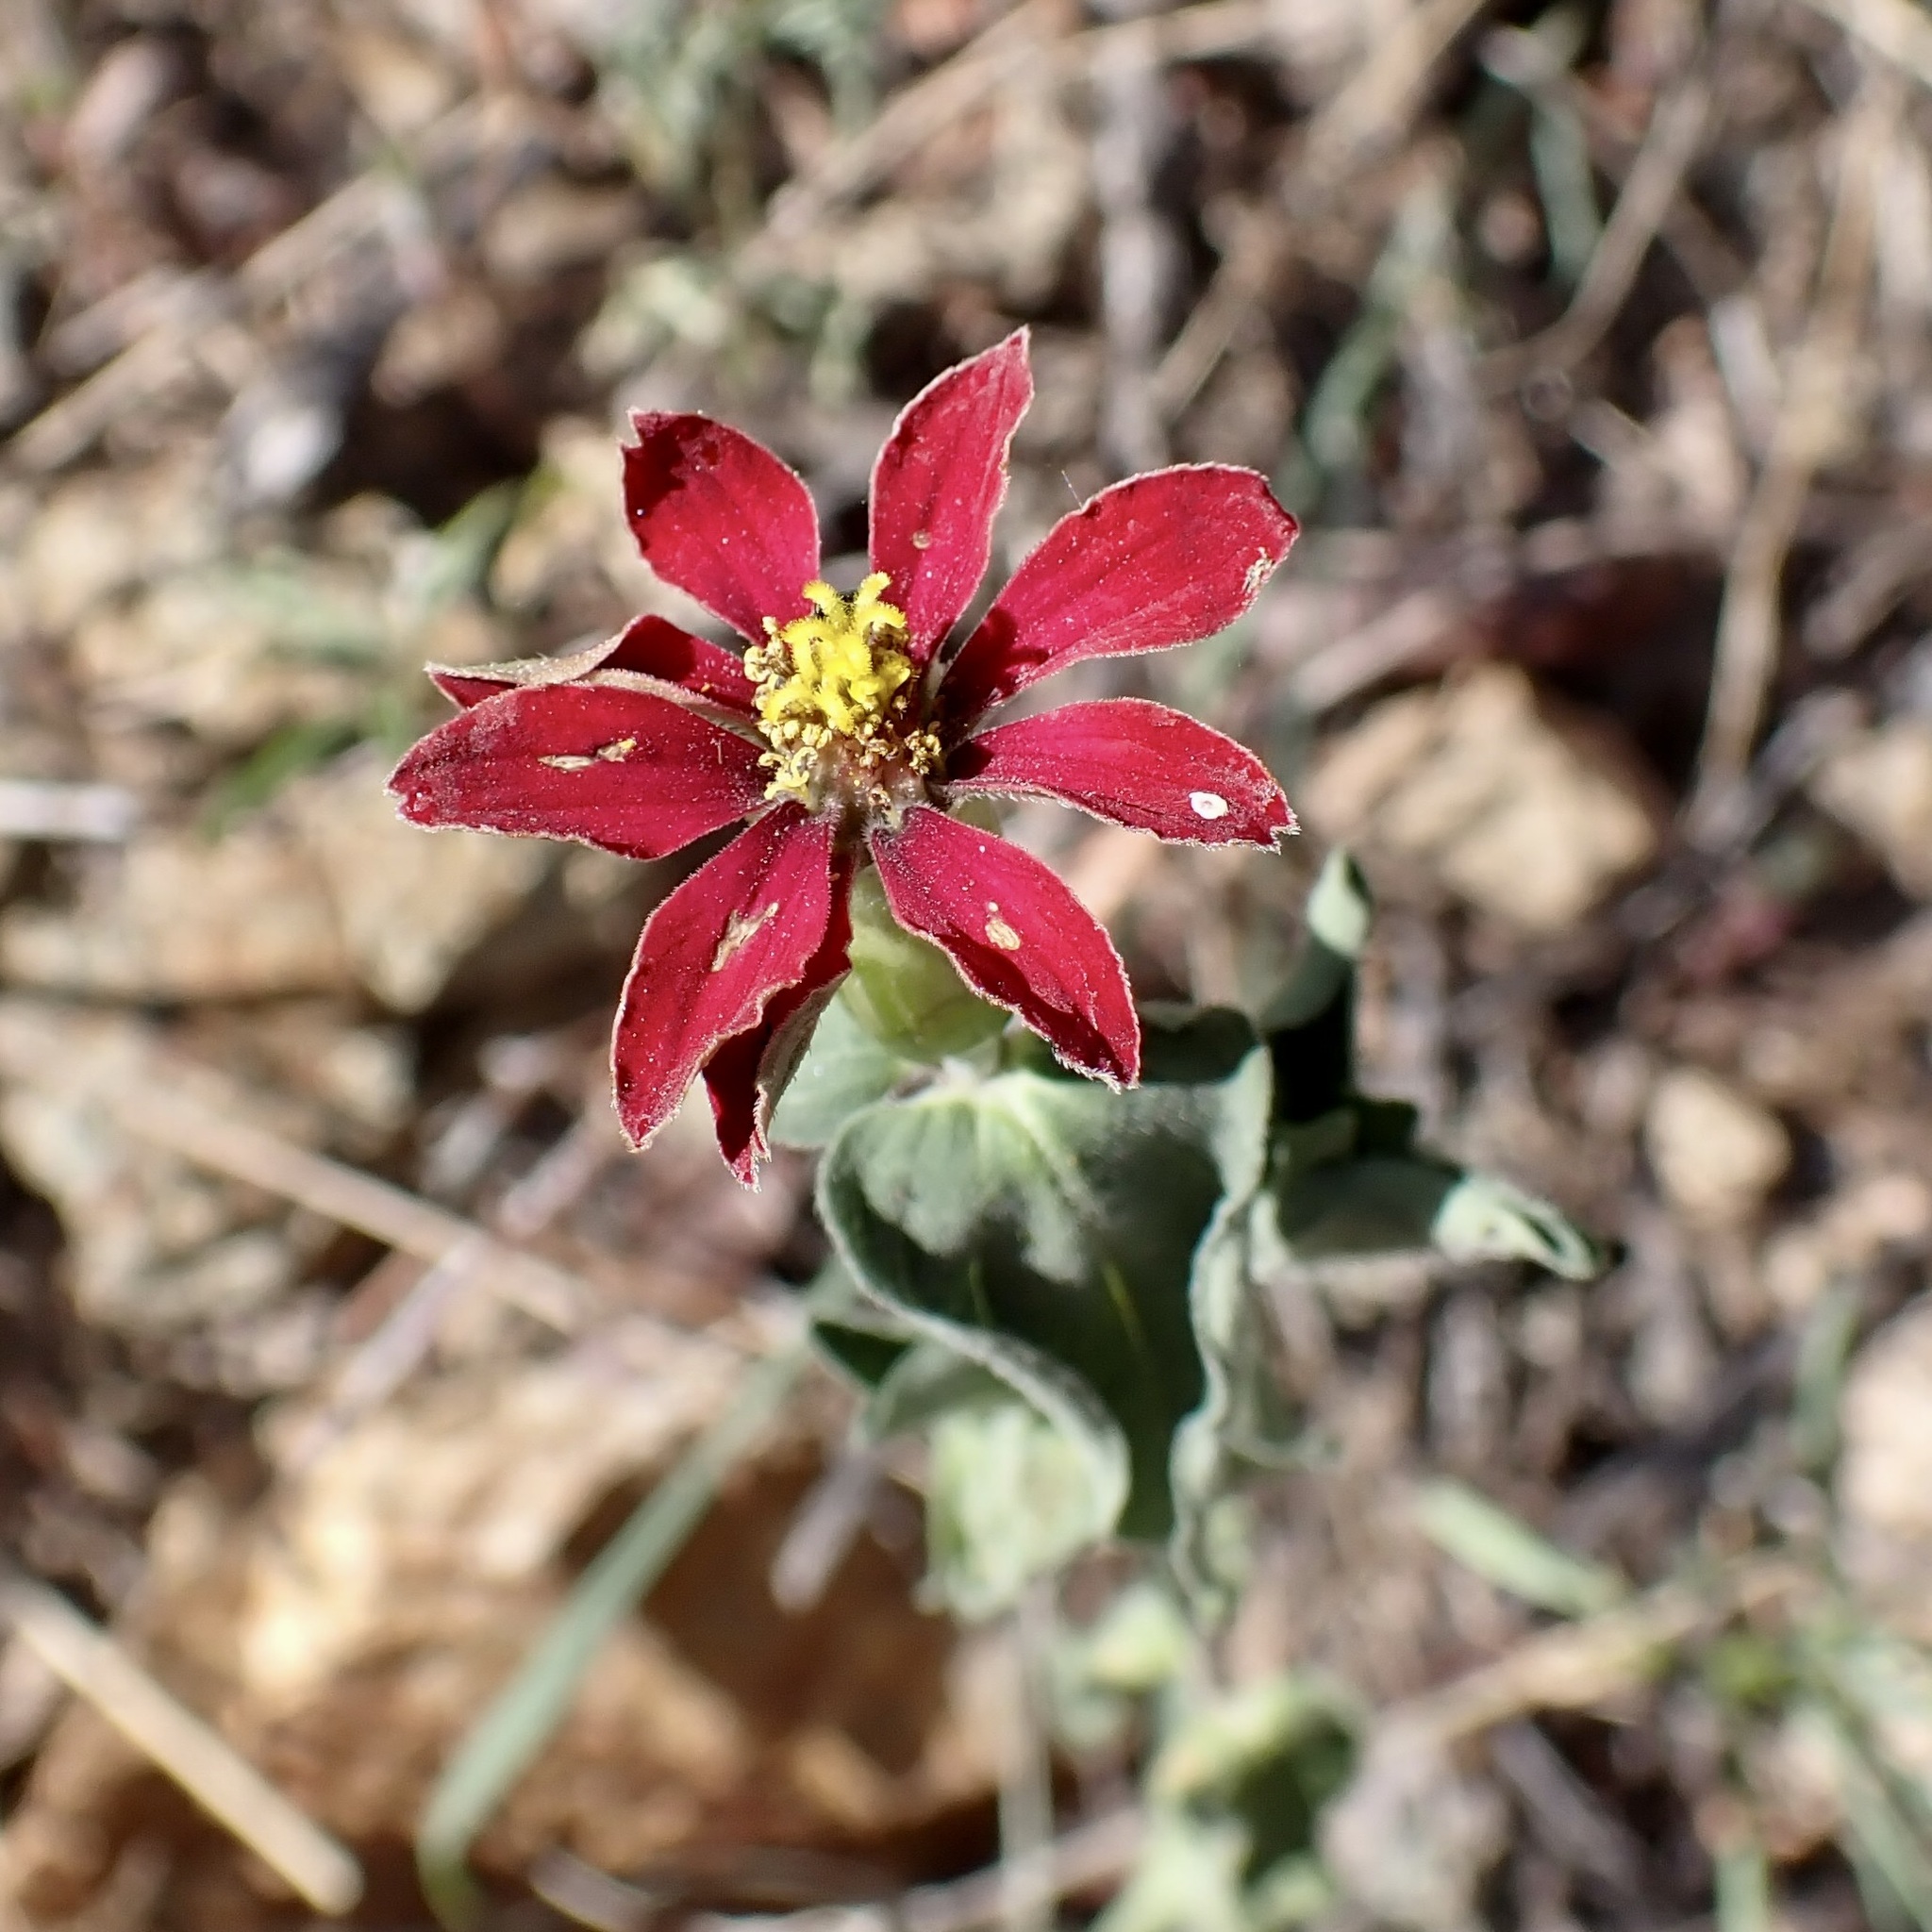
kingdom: Plantae
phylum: Tracheophyta
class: Magnoliopsida
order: Asterales
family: Asteraceae
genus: Zinnia
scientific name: Zinnia peruviana
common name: Peruvian zinnia
